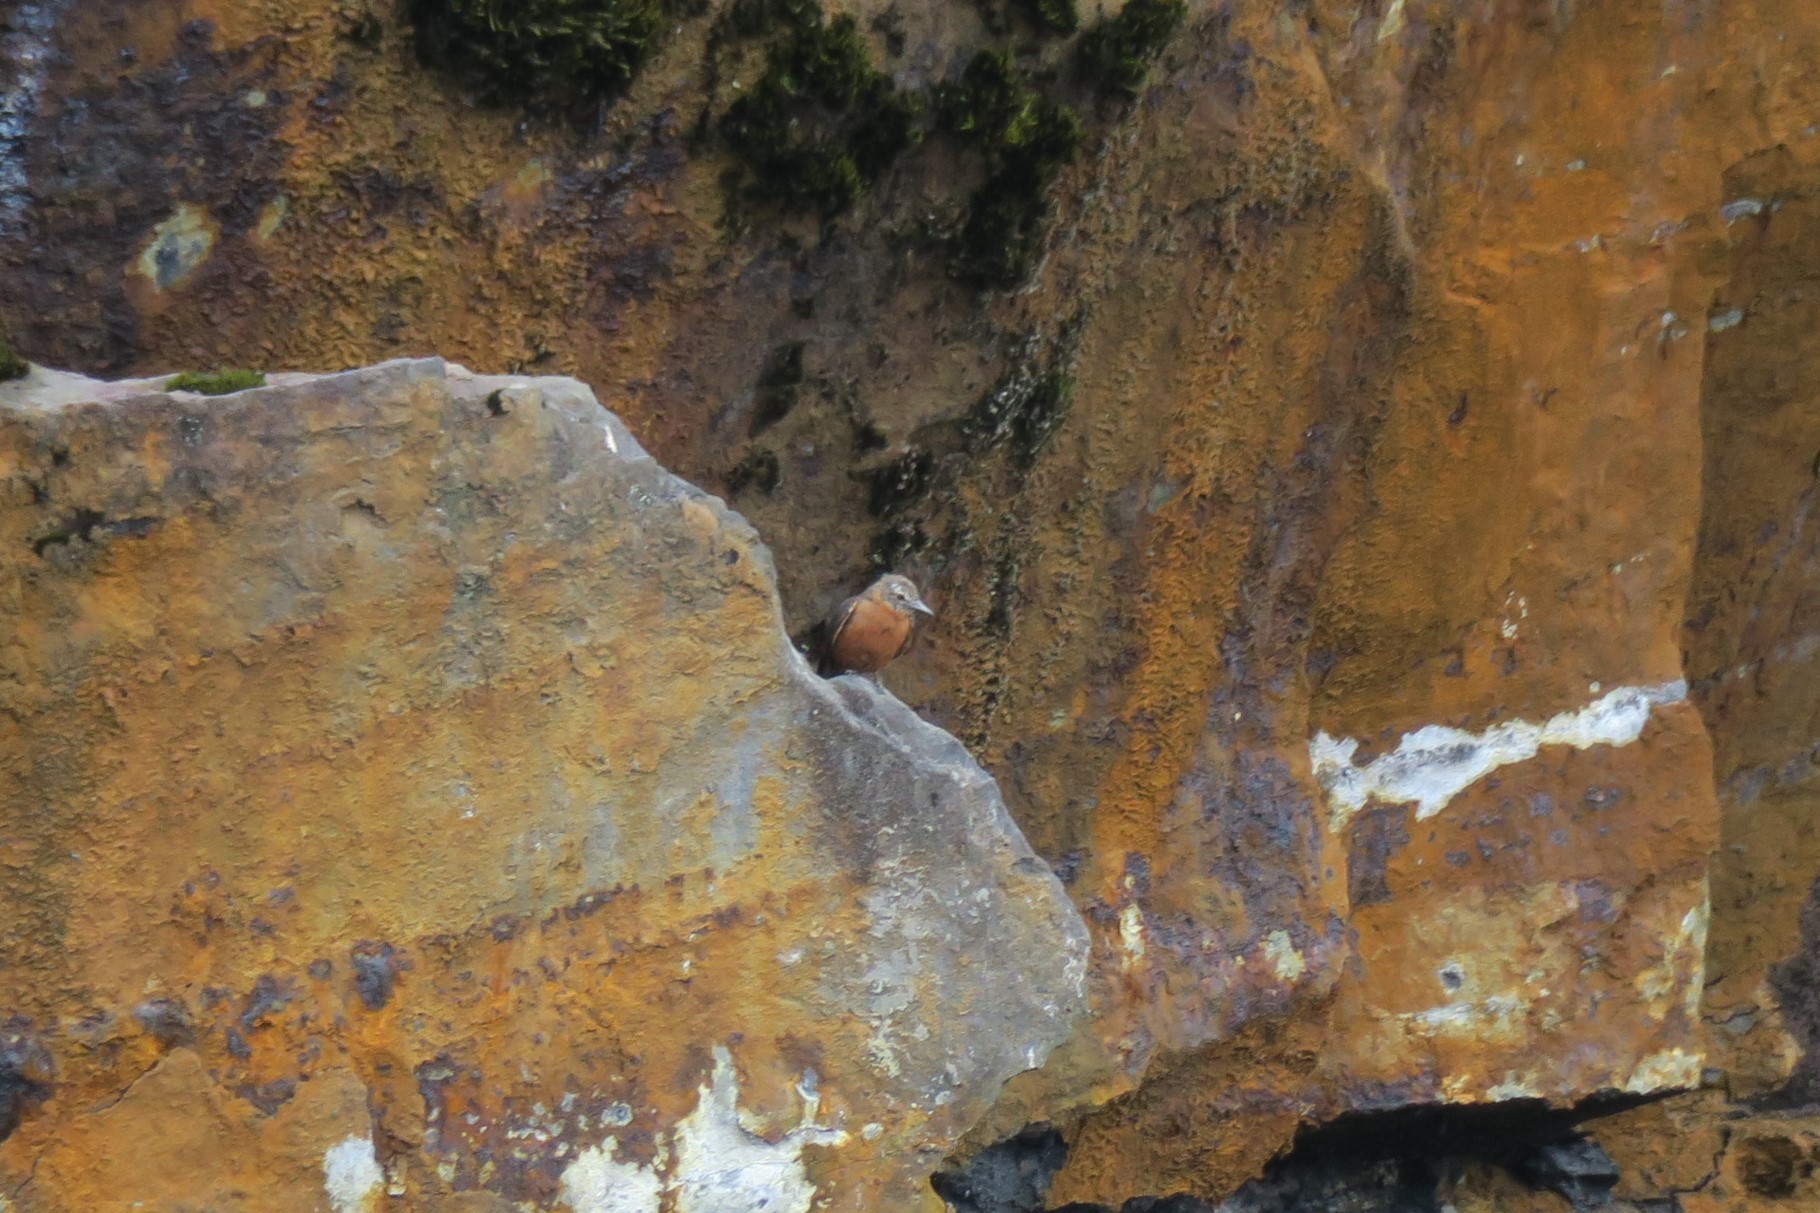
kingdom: Animalia
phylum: Chordata
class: Aves
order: Passeriformes
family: Tyrannidae
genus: Hirundinea
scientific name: Hirundinea ferruginea
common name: Cliff flycatcher
